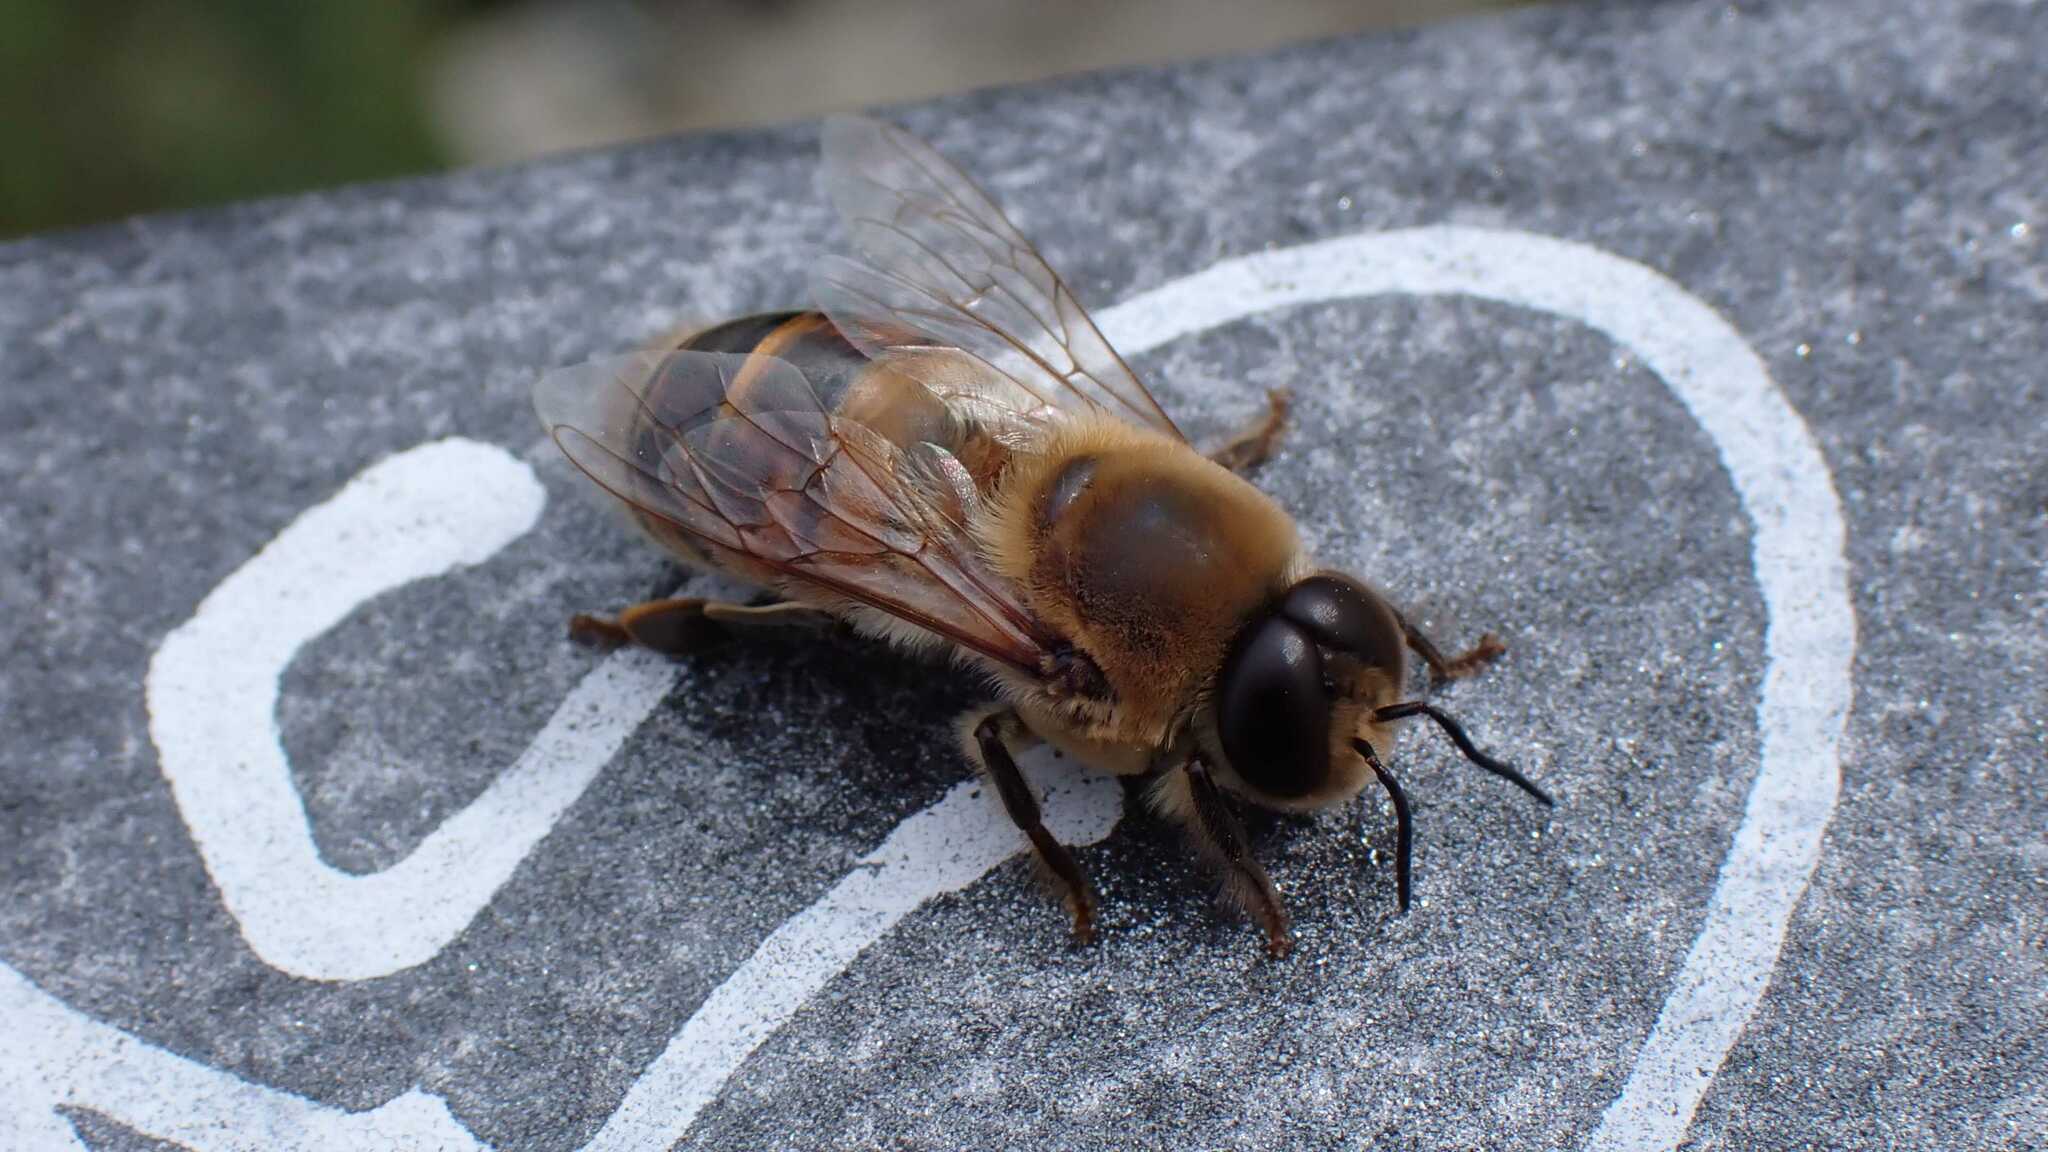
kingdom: Animalia
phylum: Arthropoda
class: Insecta
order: Hymenoptera
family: Apidae
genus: Apis
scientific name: Apis mellifera
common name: Honey bee
